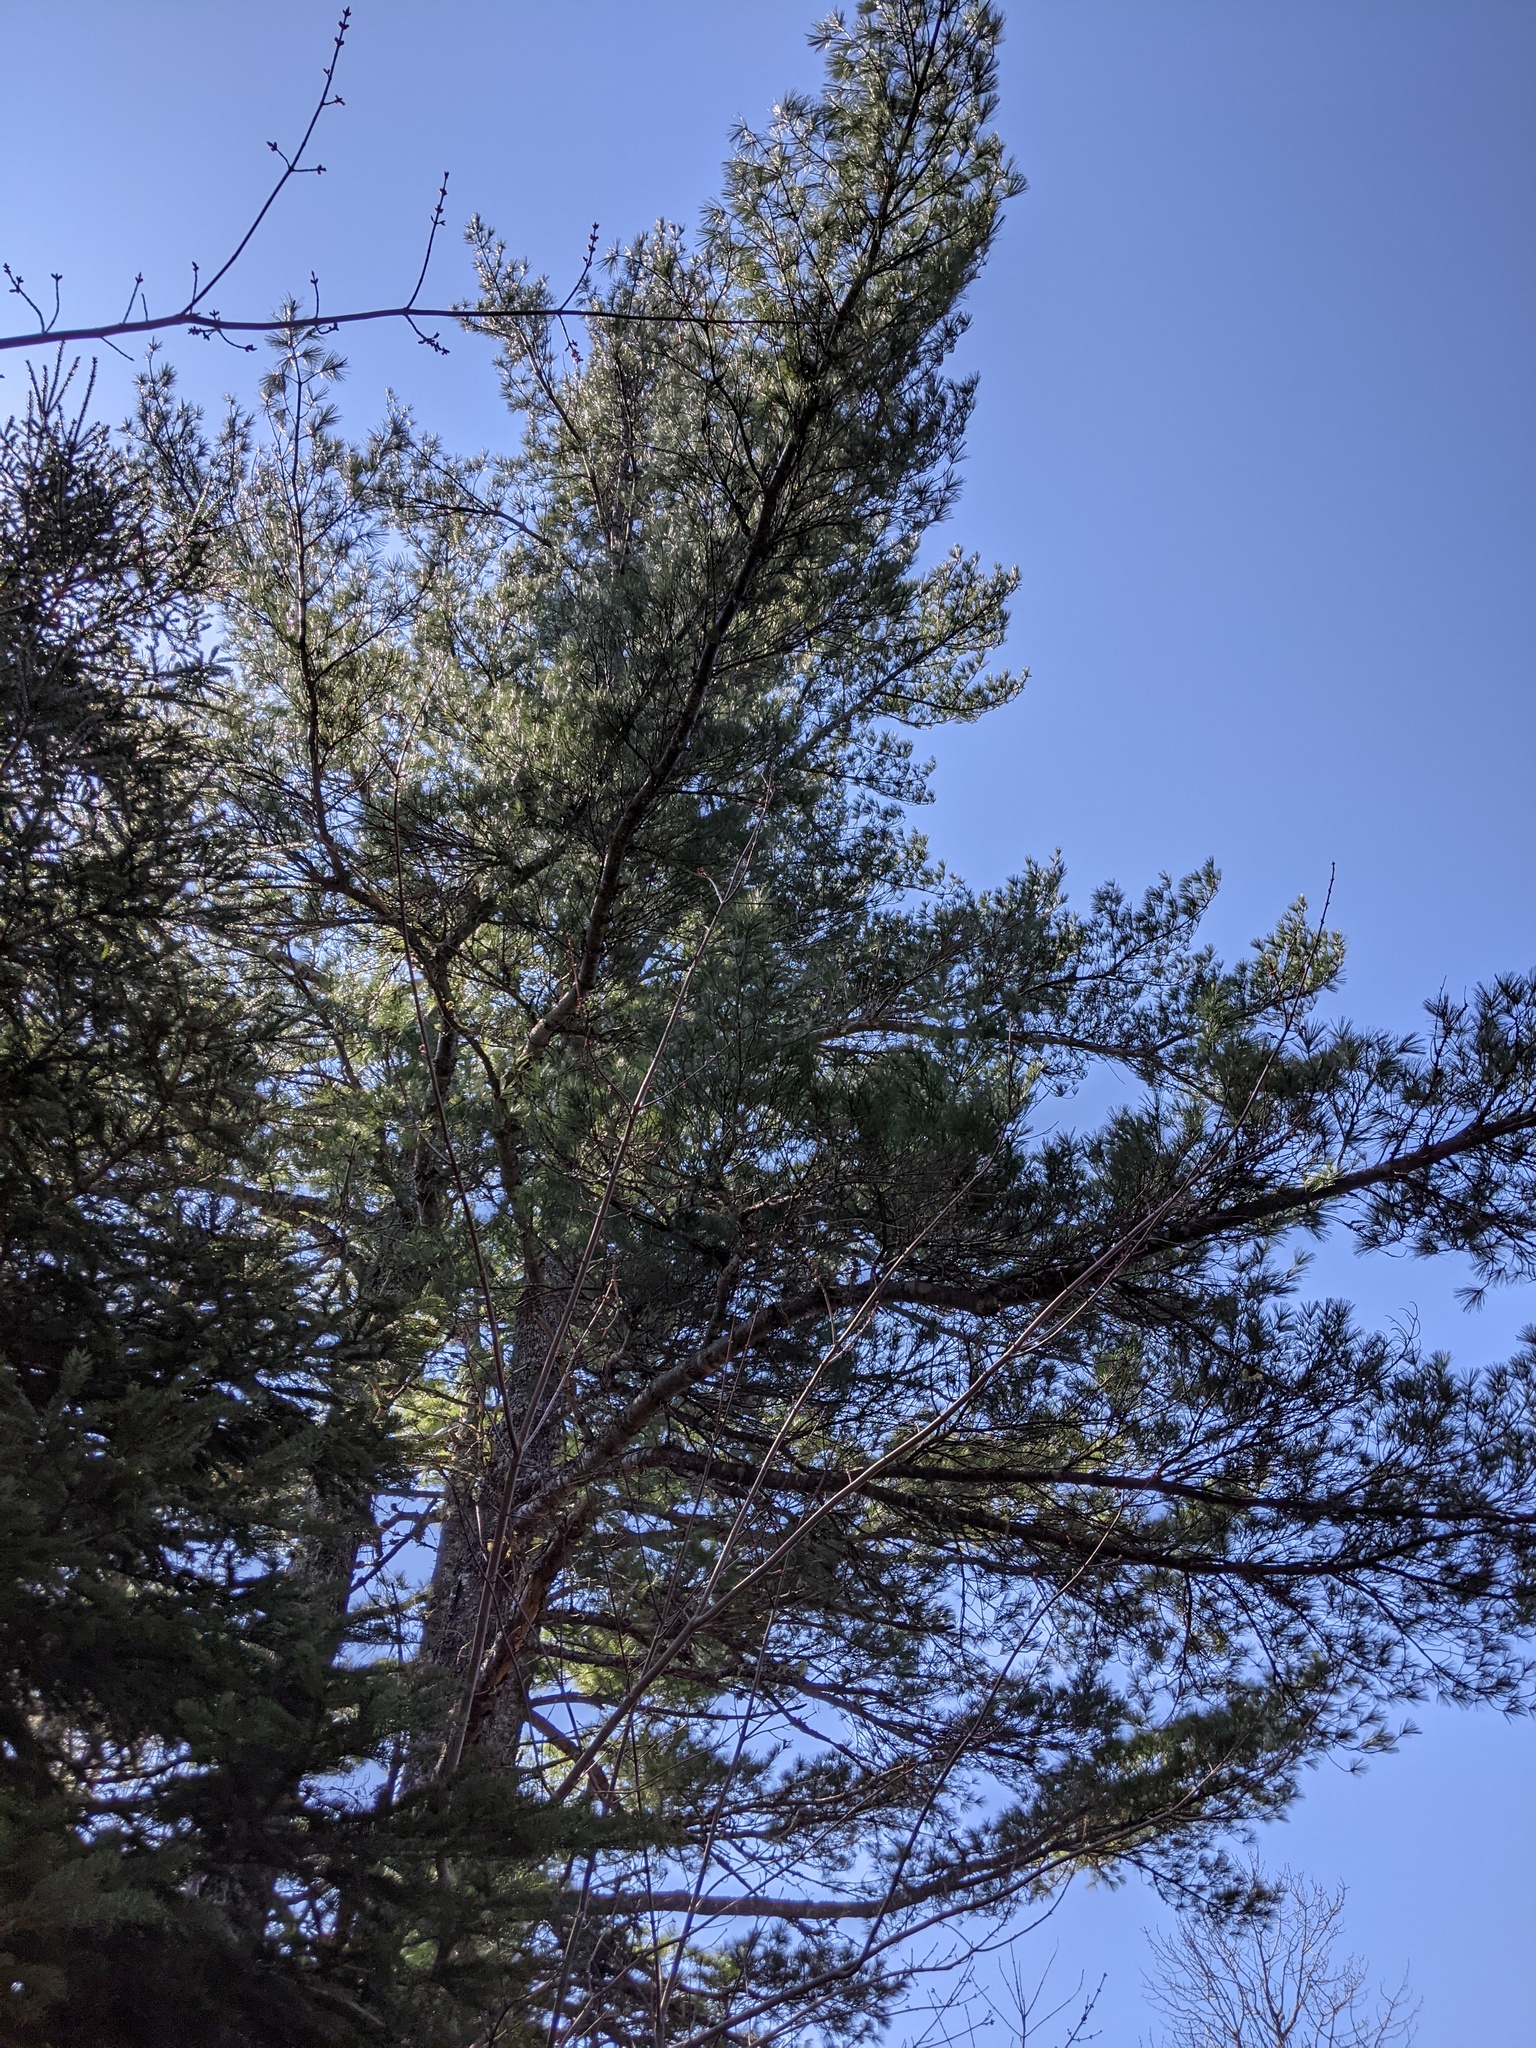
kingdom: Plantae
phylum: Tracheophyta
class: Pinopsida
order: Pinales
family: Pinaceae
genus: Pinus
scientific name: Pinus strobus
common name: Weymouth pine
